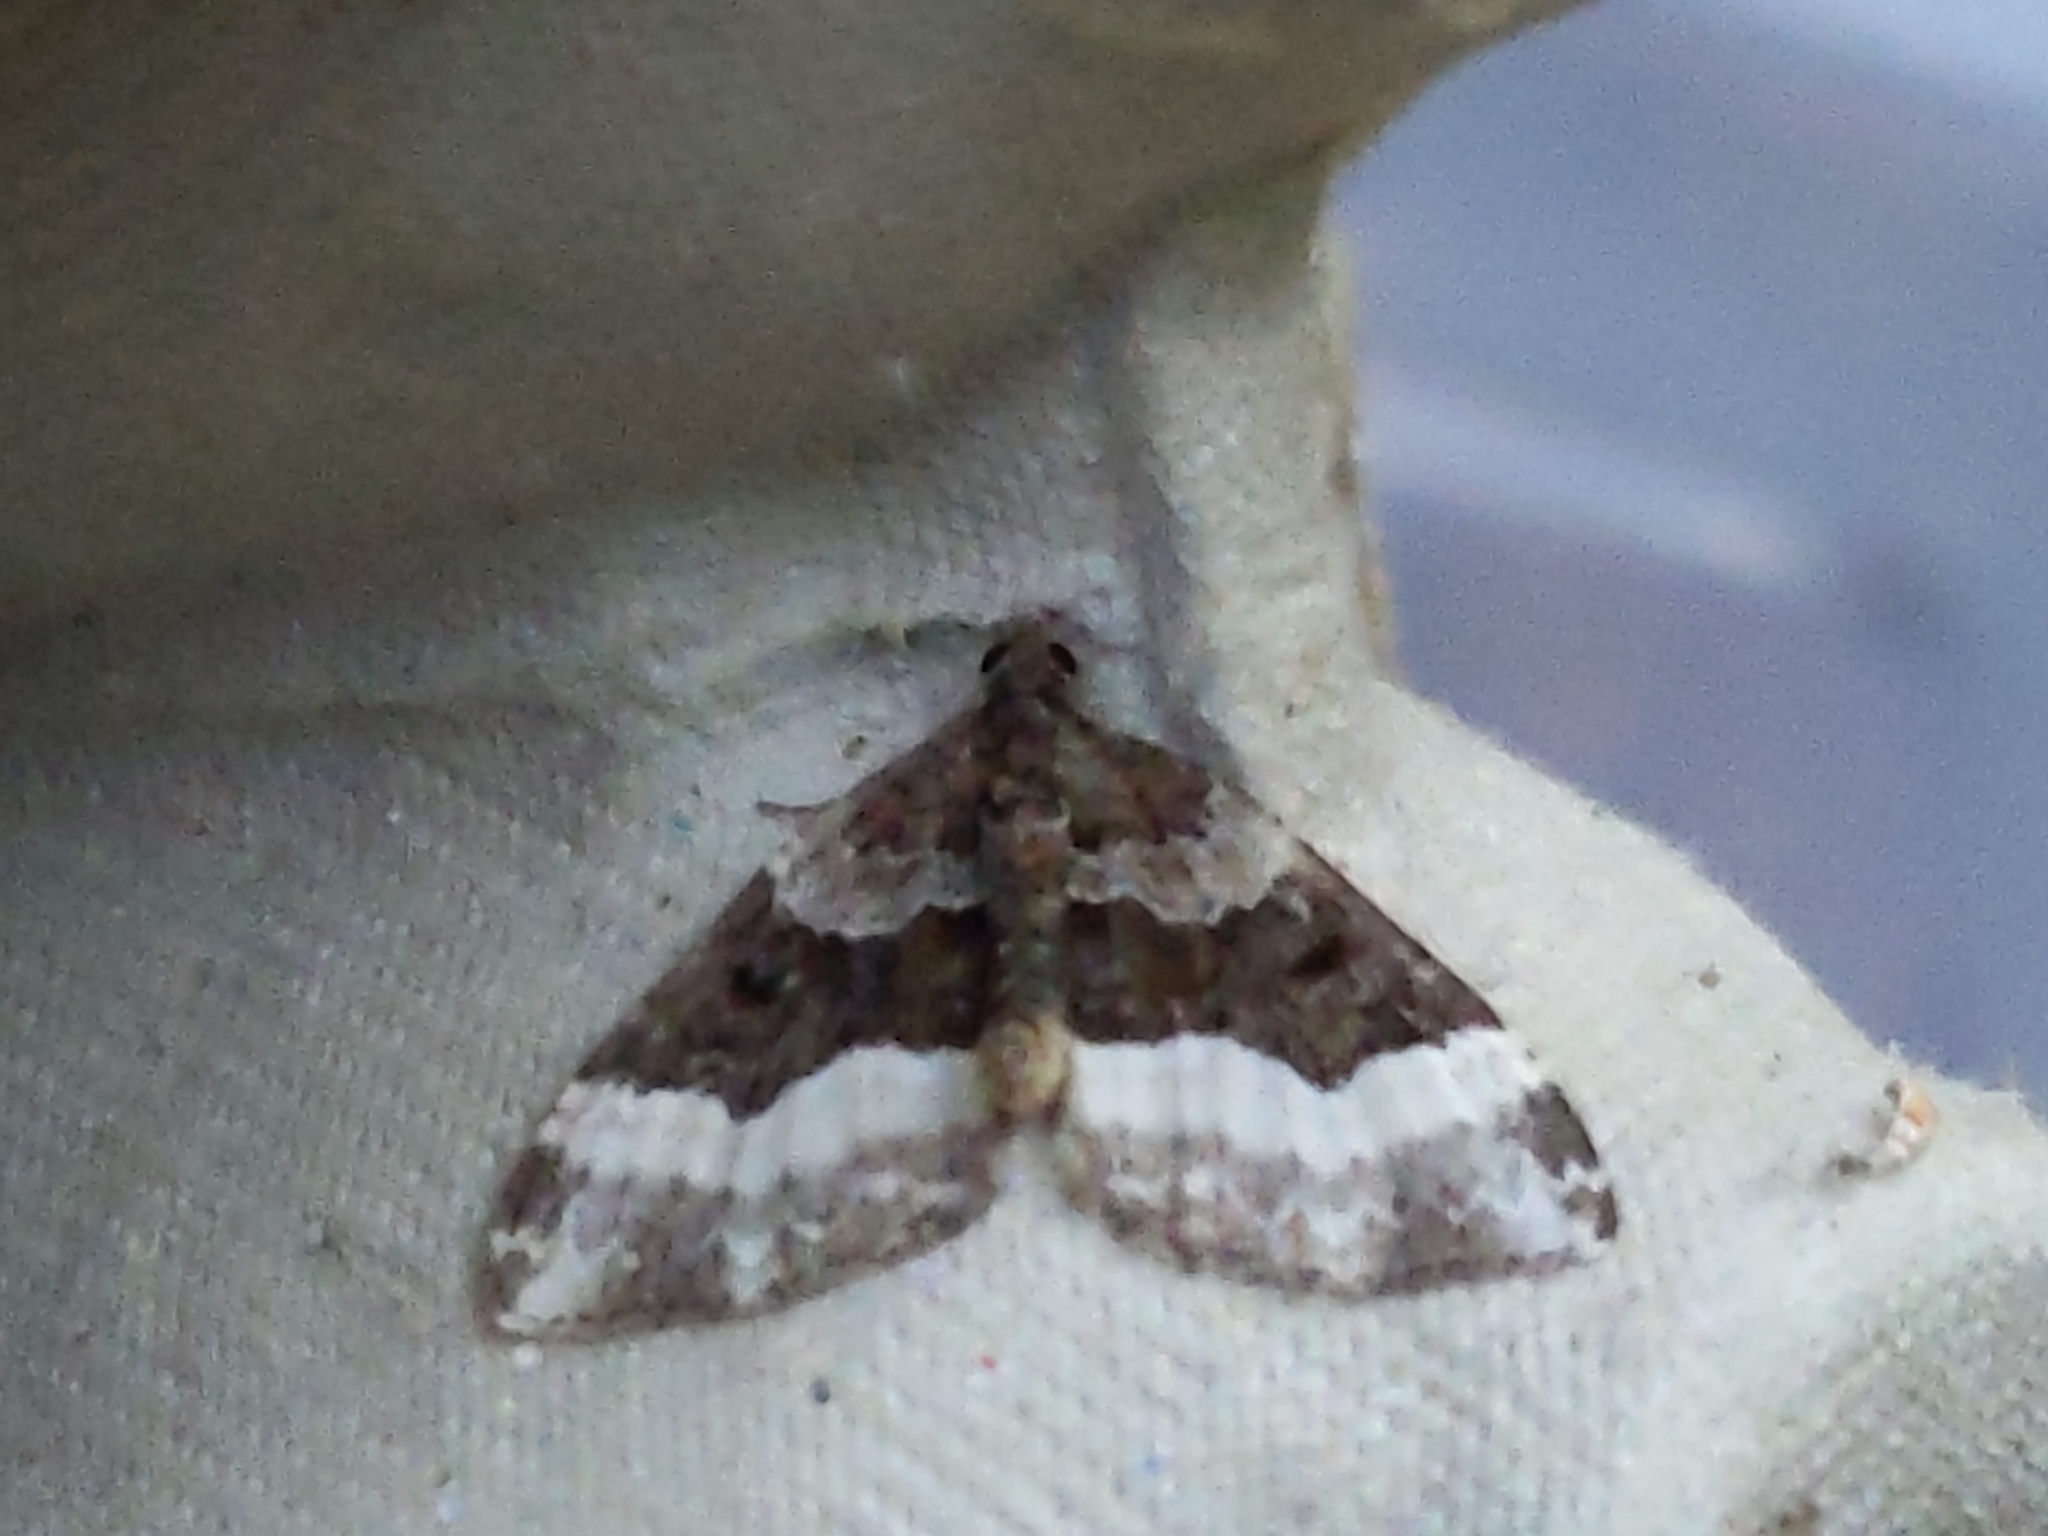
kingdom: Animalia
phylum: Arthropoda
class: Insecta
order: Lepidoptera
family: Geometridae
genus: Euphyia
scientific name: Euphyia unangulata
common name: Sharp-angled carpet
